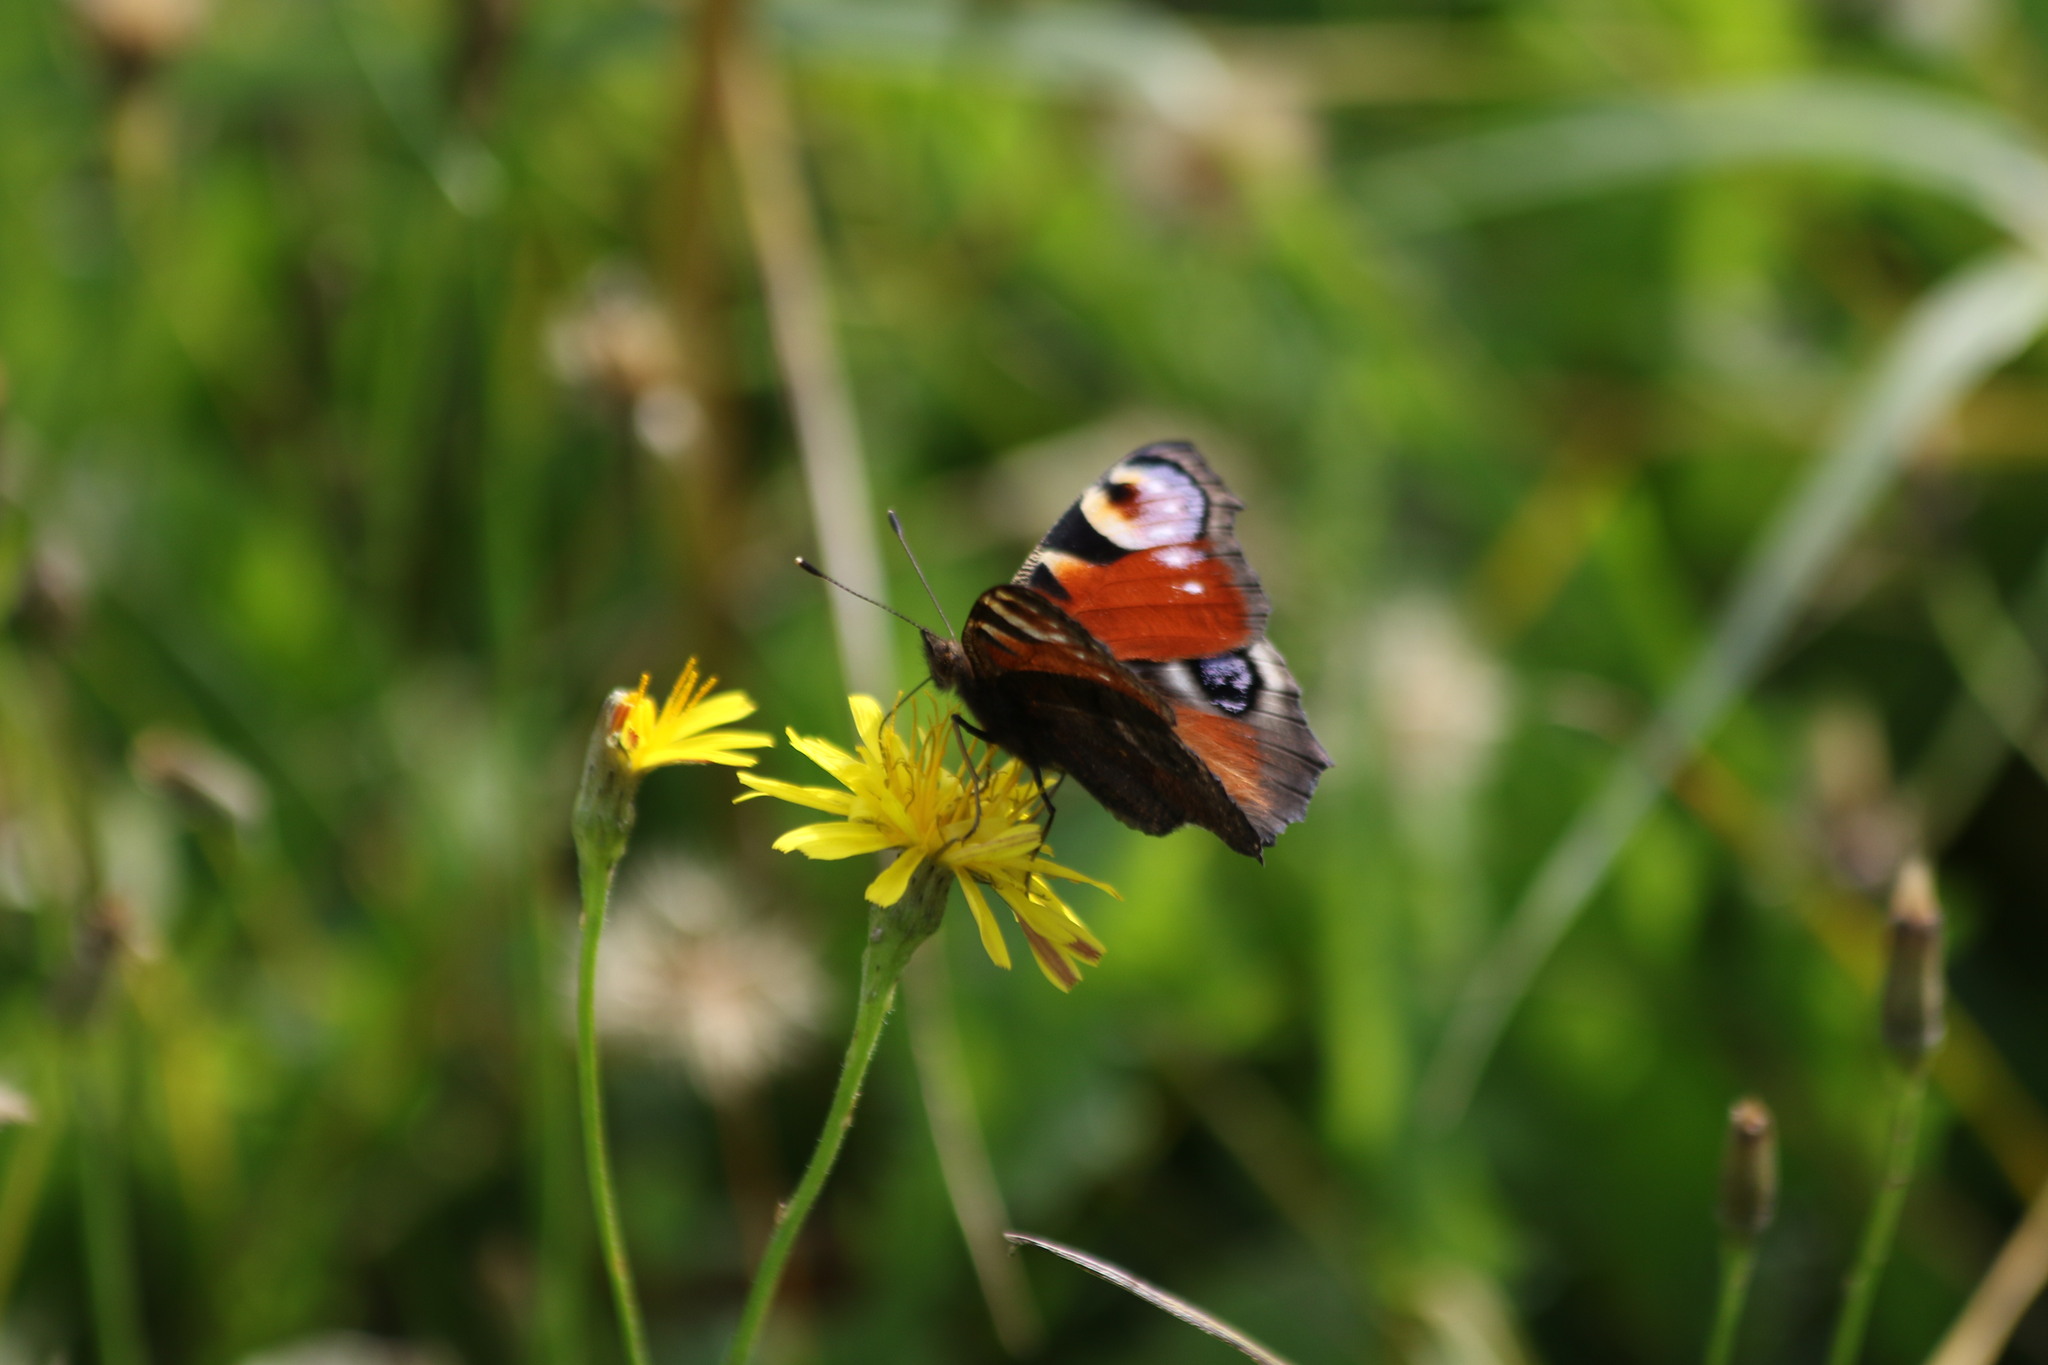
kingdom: Animalia
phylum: Arthropoda
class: Insecta
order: Lepidoptera
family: Nymphalidae
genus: Aglais
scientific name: Aglais io
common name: Peacock
